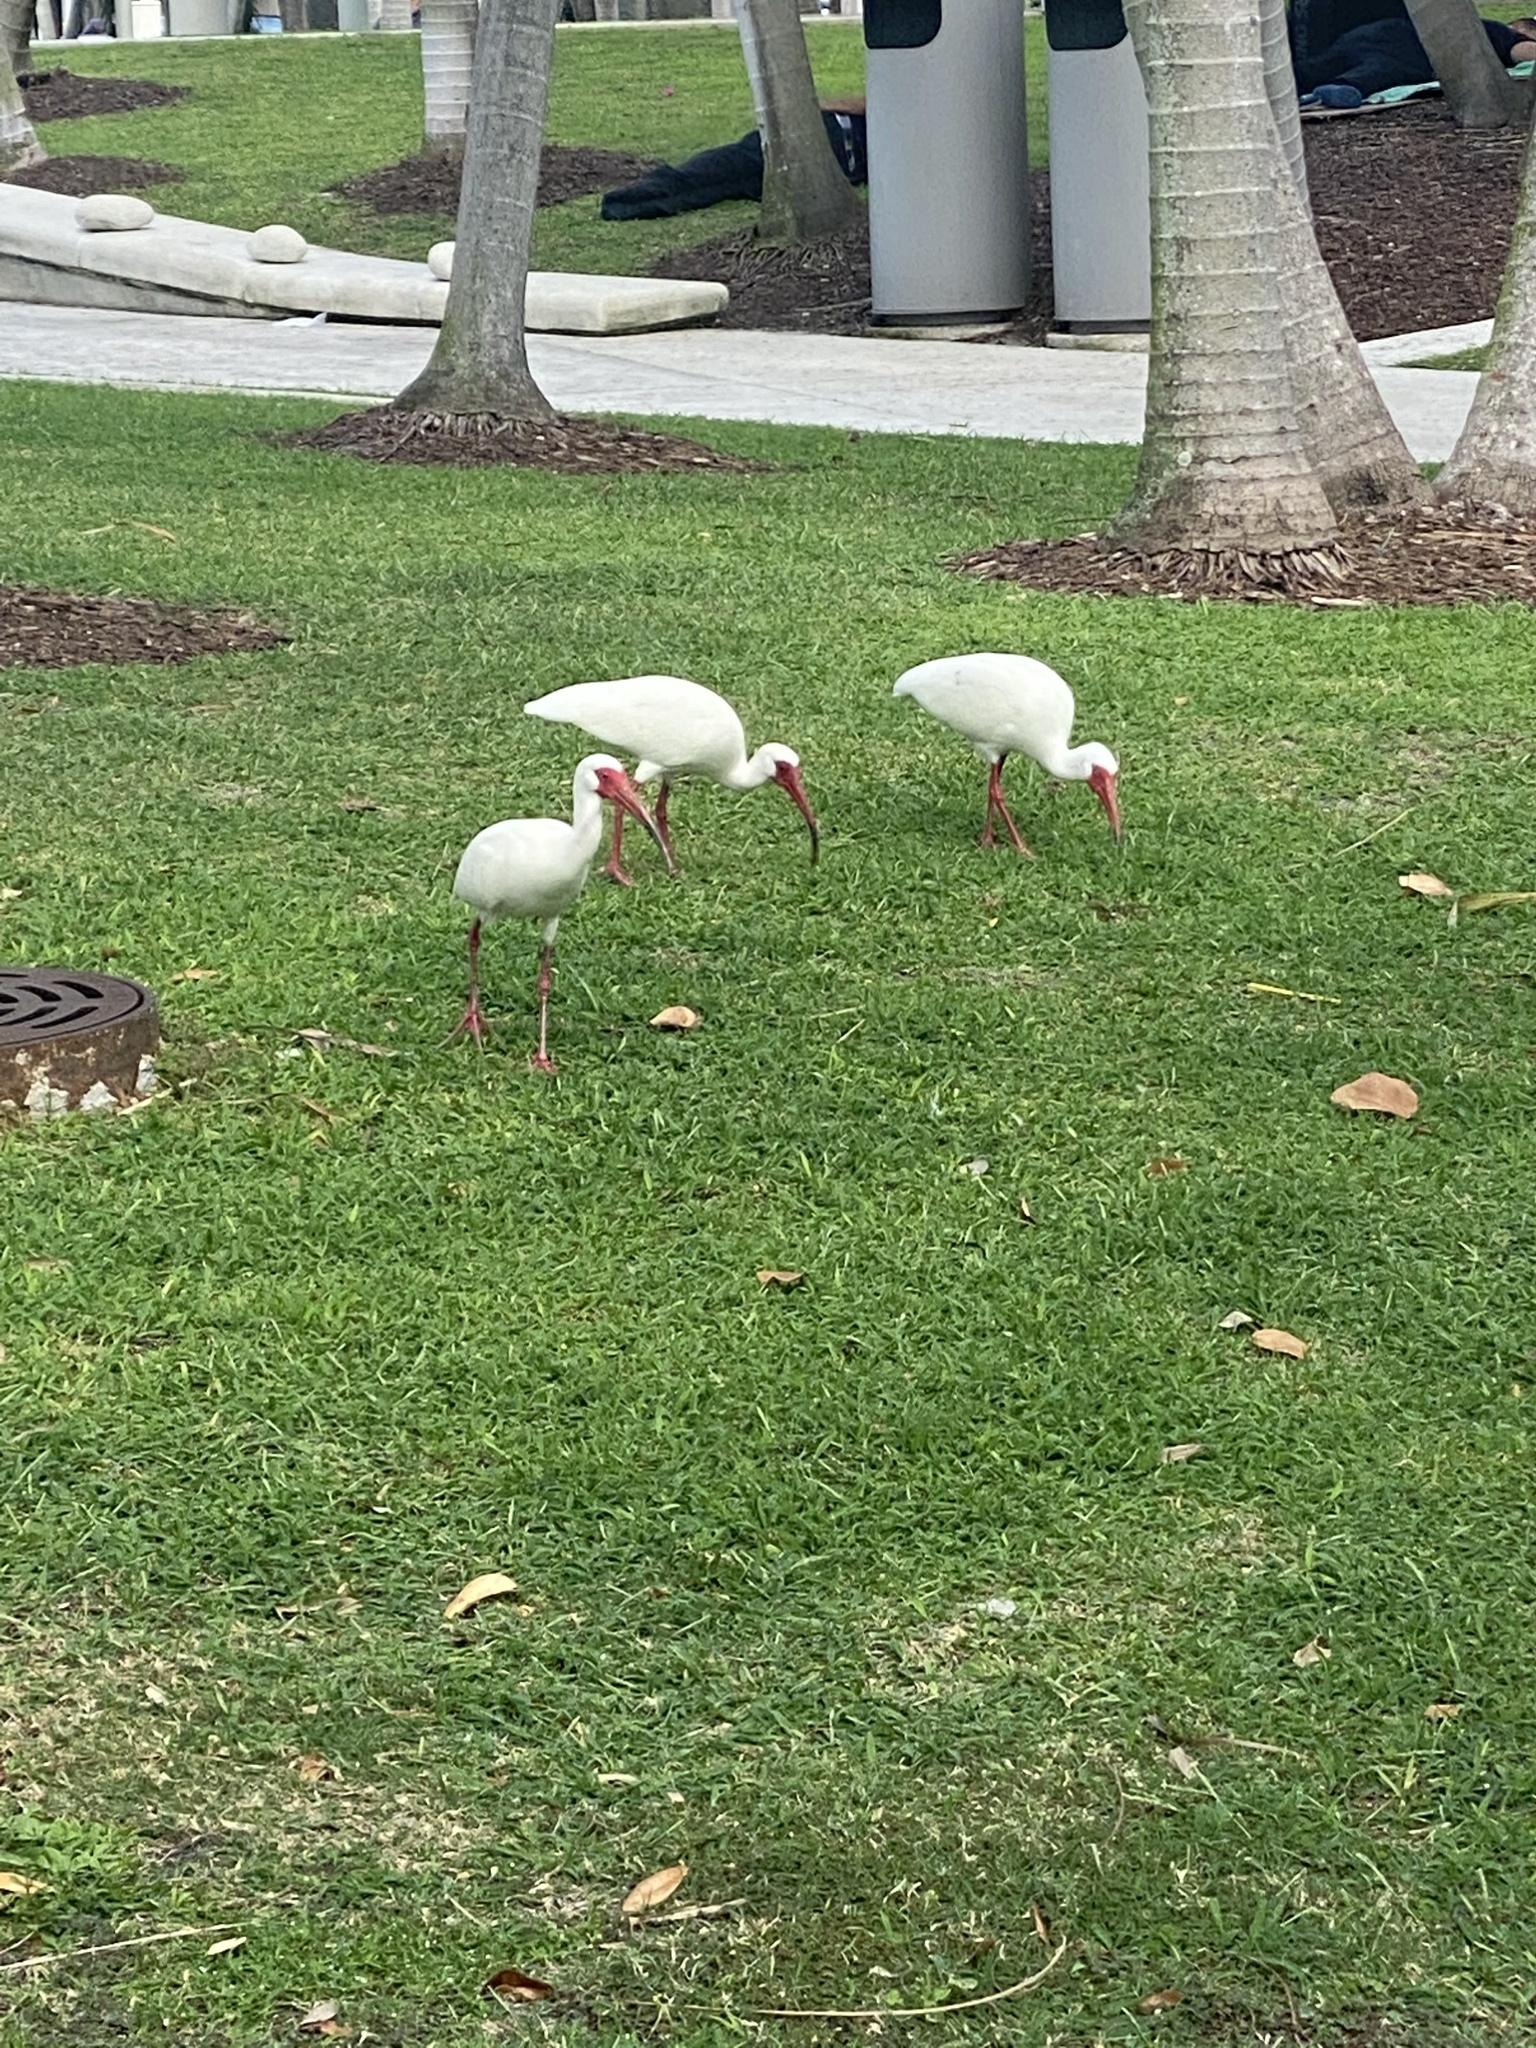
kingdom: Animalia
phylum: Chordata
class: Aves
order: Pelecaniformes
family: Threskiornithidae
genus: Eudocimus
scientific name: Eudocimus albus
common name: White ibis
